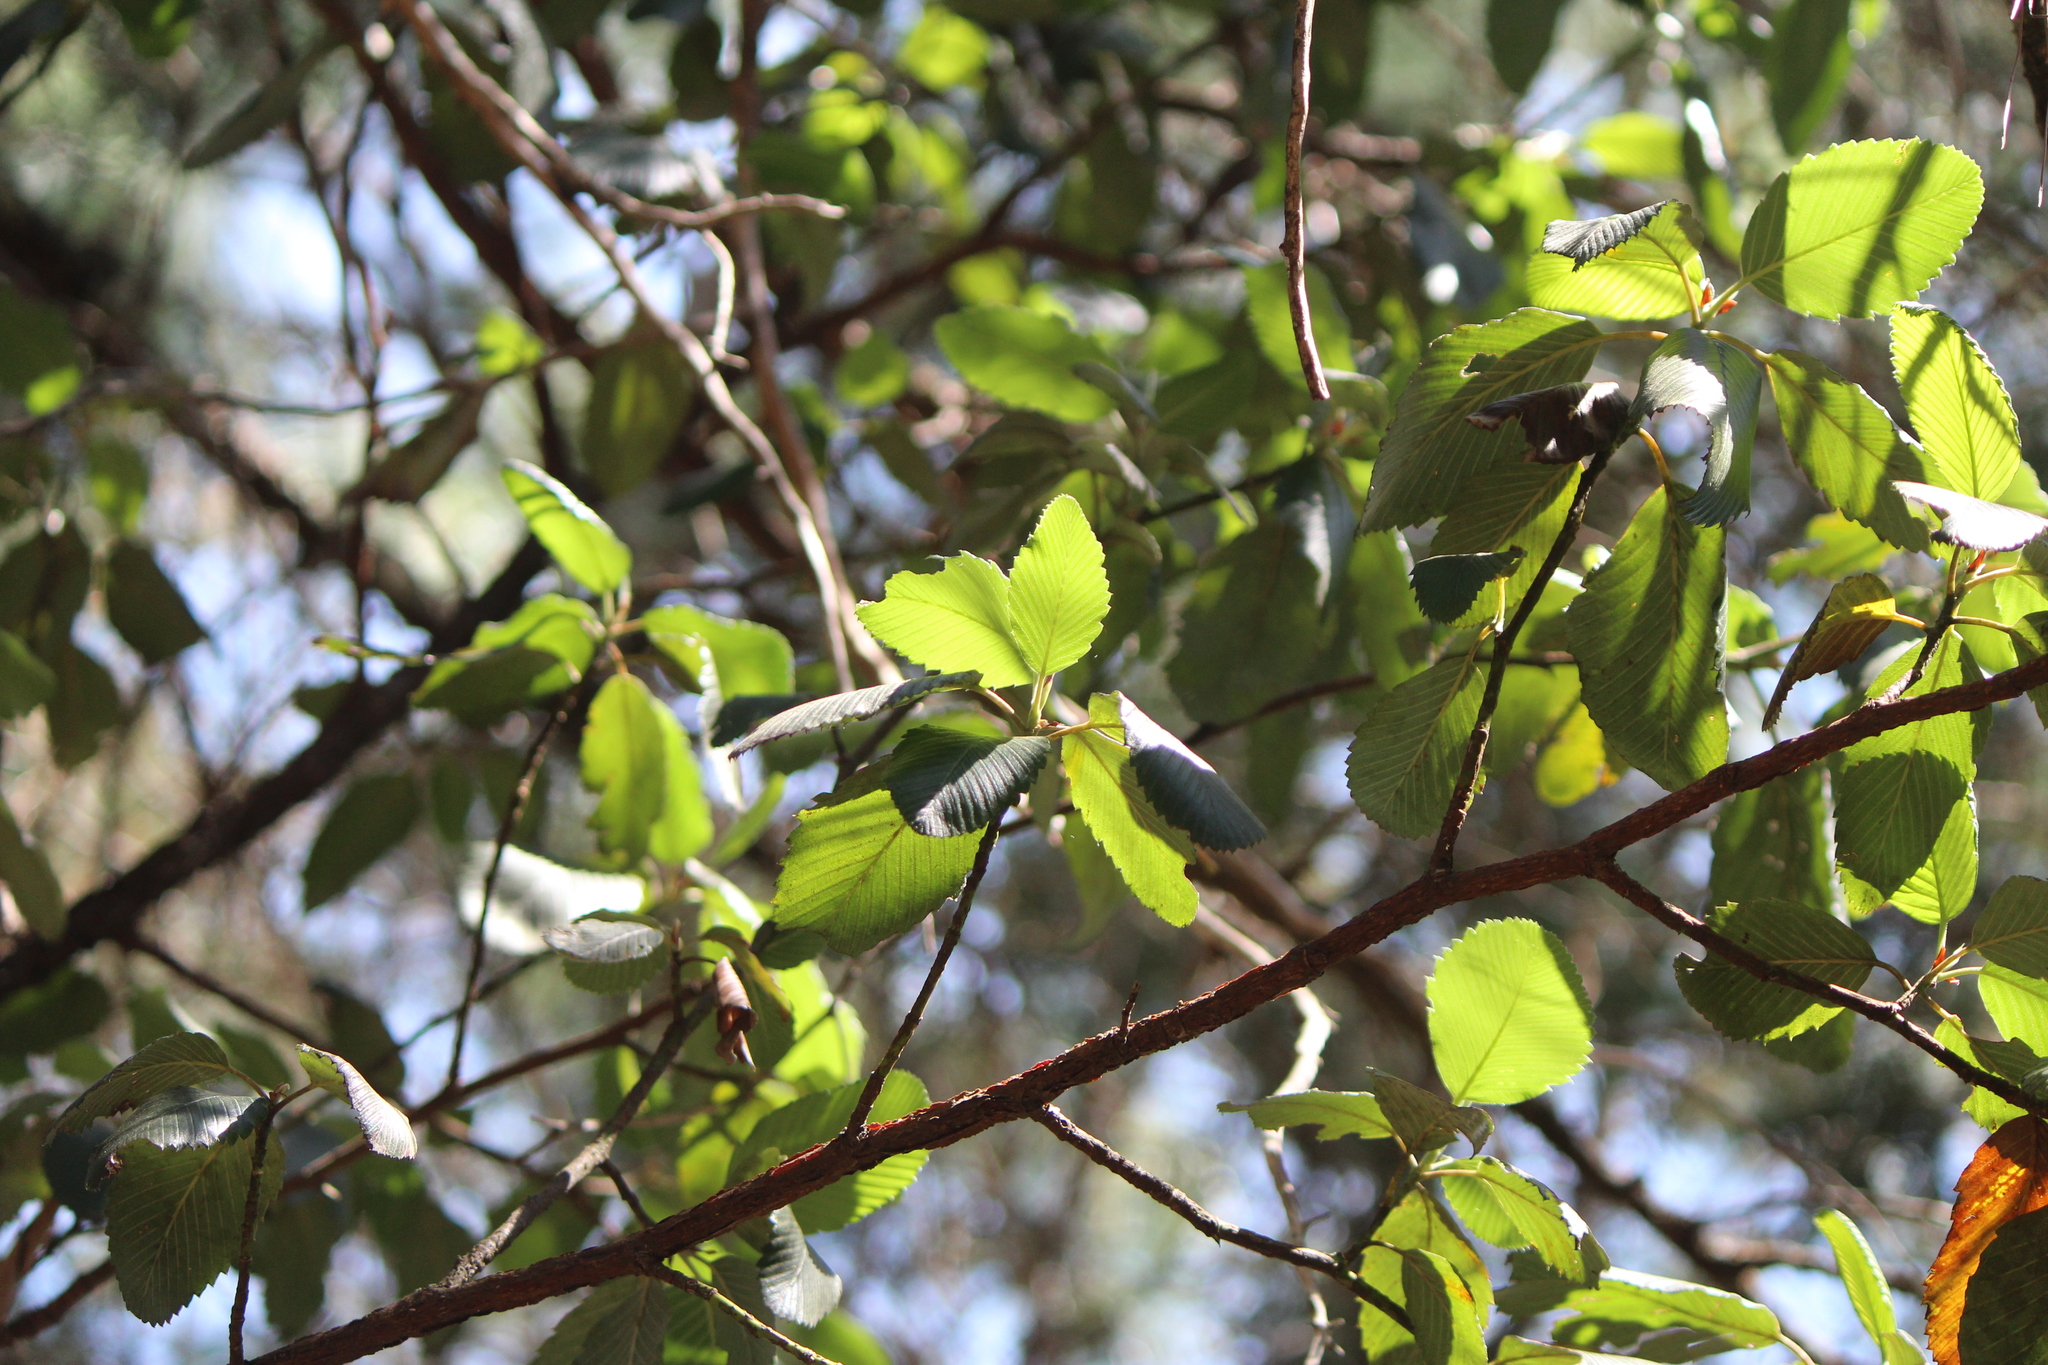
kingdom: Plantae
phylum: Tracheophyta
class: Magnoliopsida
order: Rosales
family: Rosaceae
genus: Cercocarpus
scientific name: Cercocarpus macrophyllus
